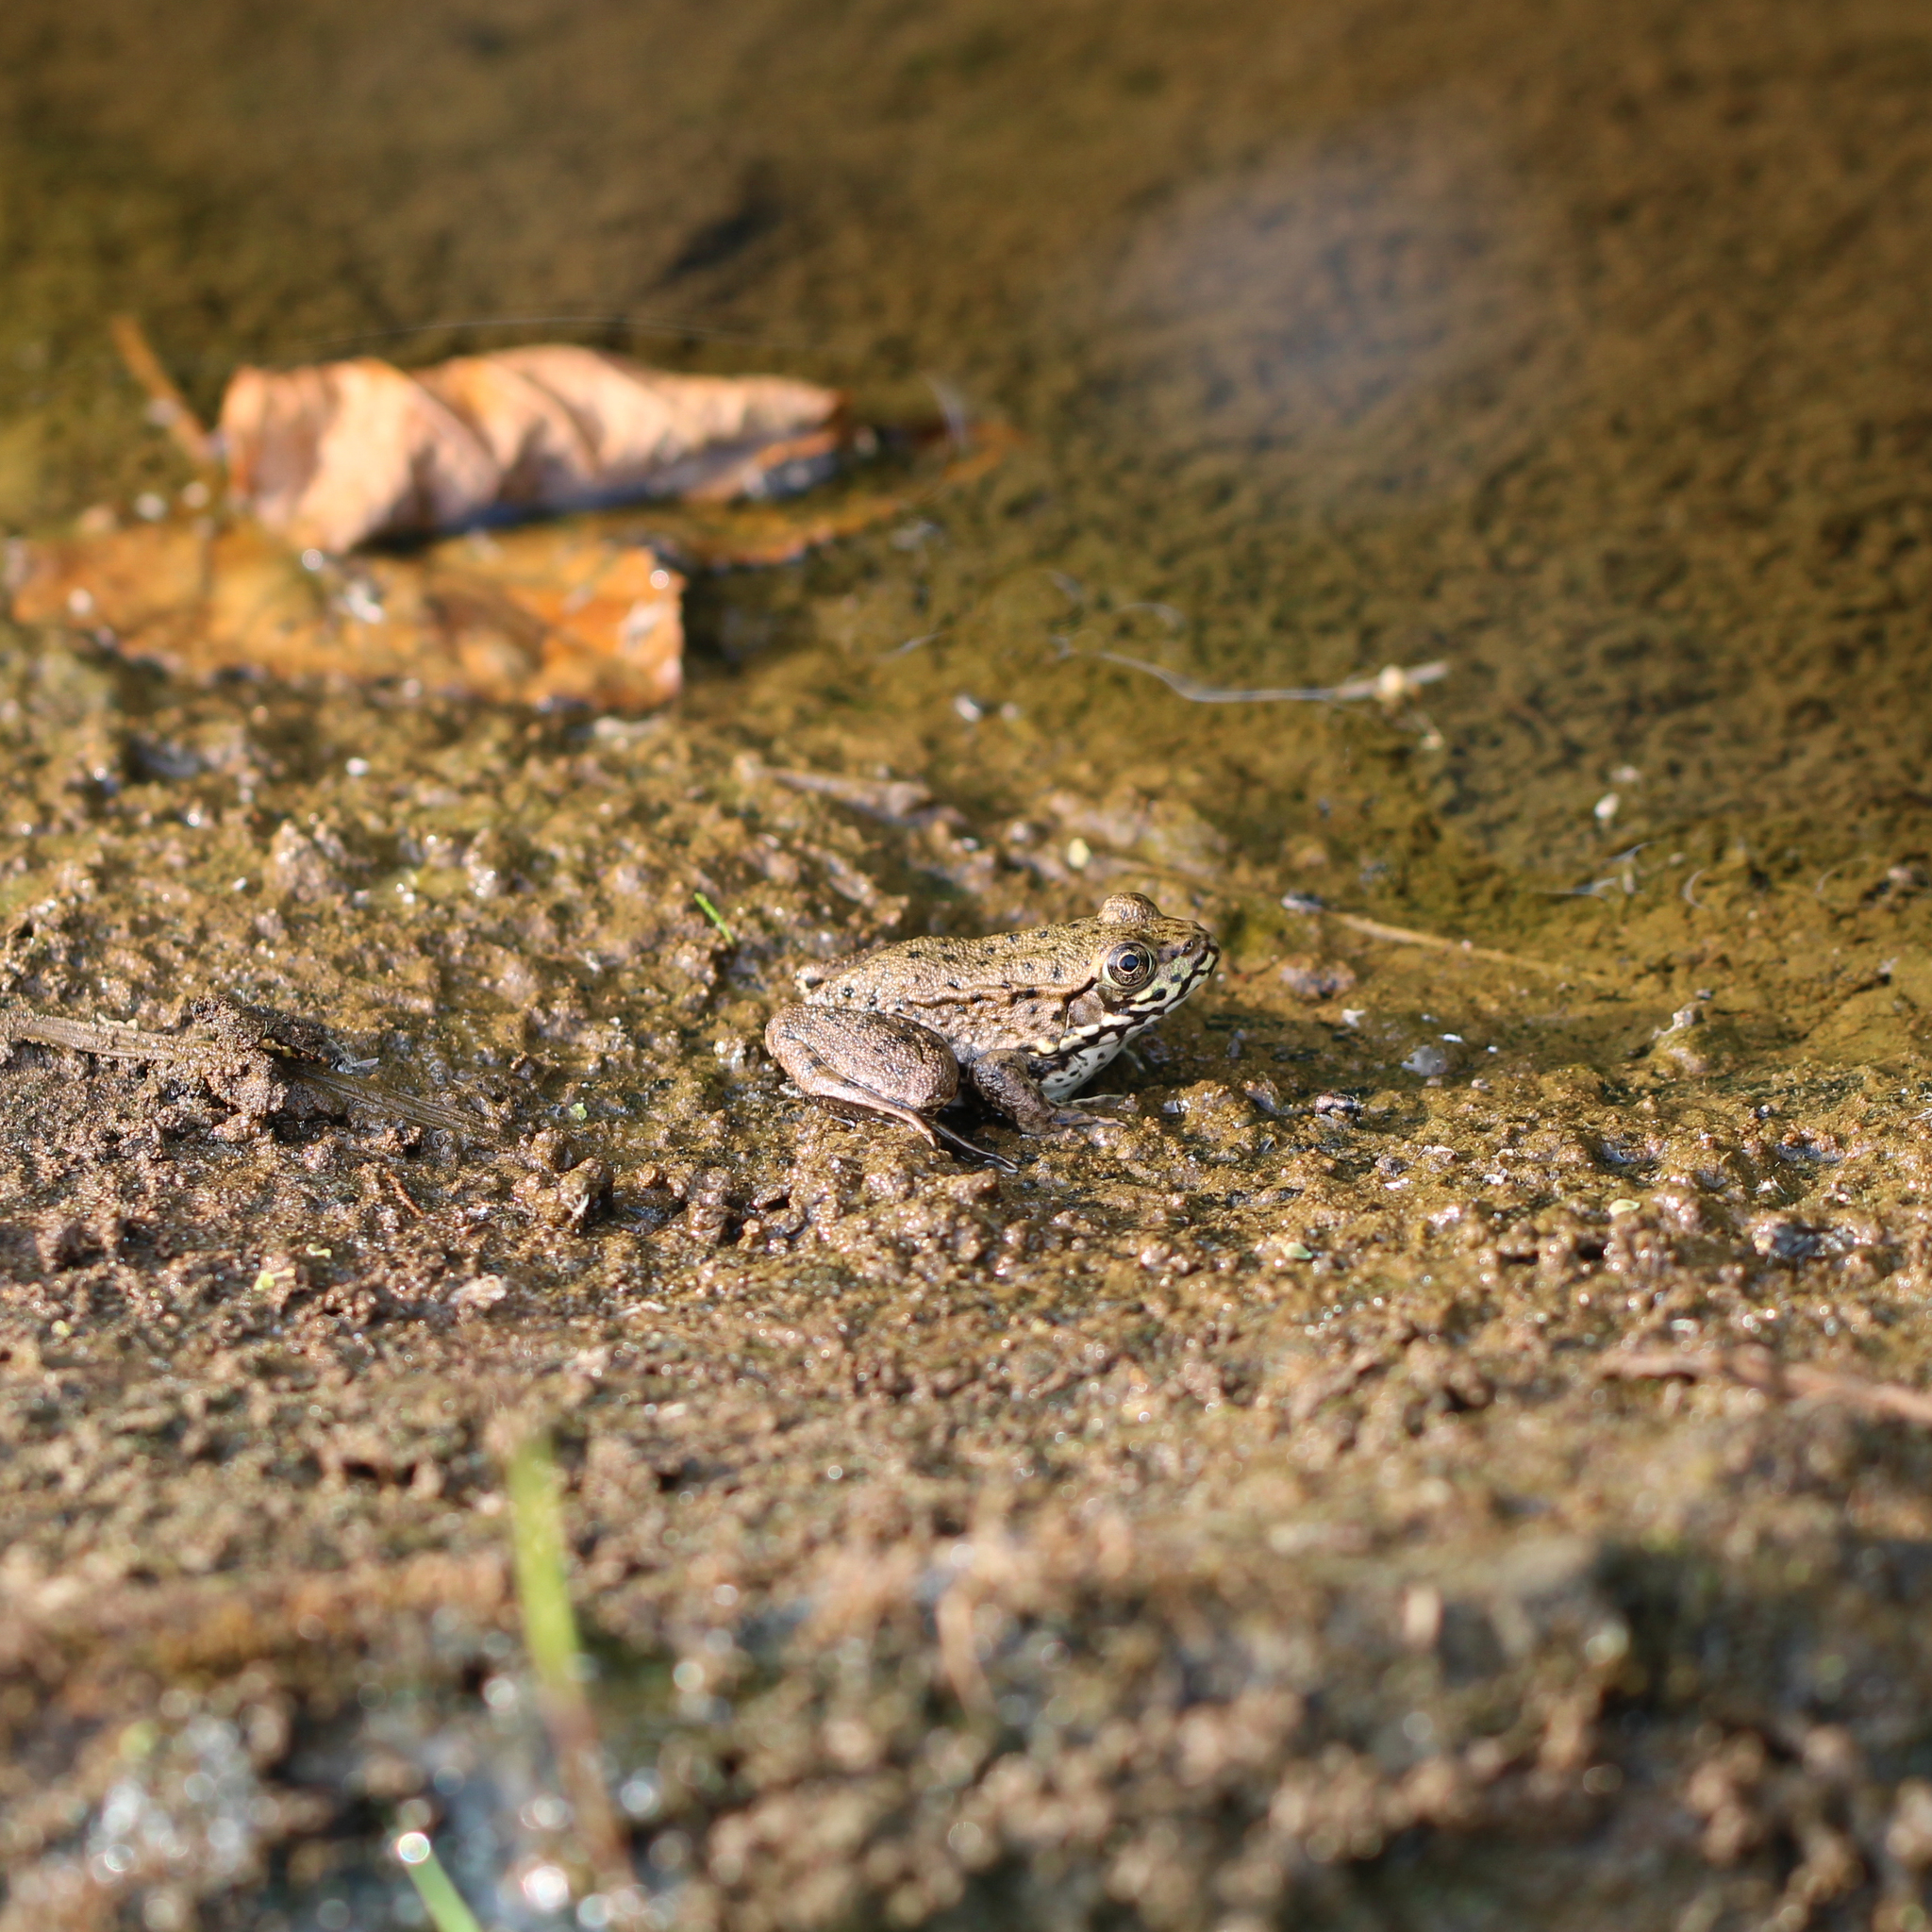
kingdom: Animalia
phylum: Chordata
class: Amphibia
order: Anura
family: Ranidae
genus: Lithobates
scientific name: Lithobates clamitans
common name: Green frog
